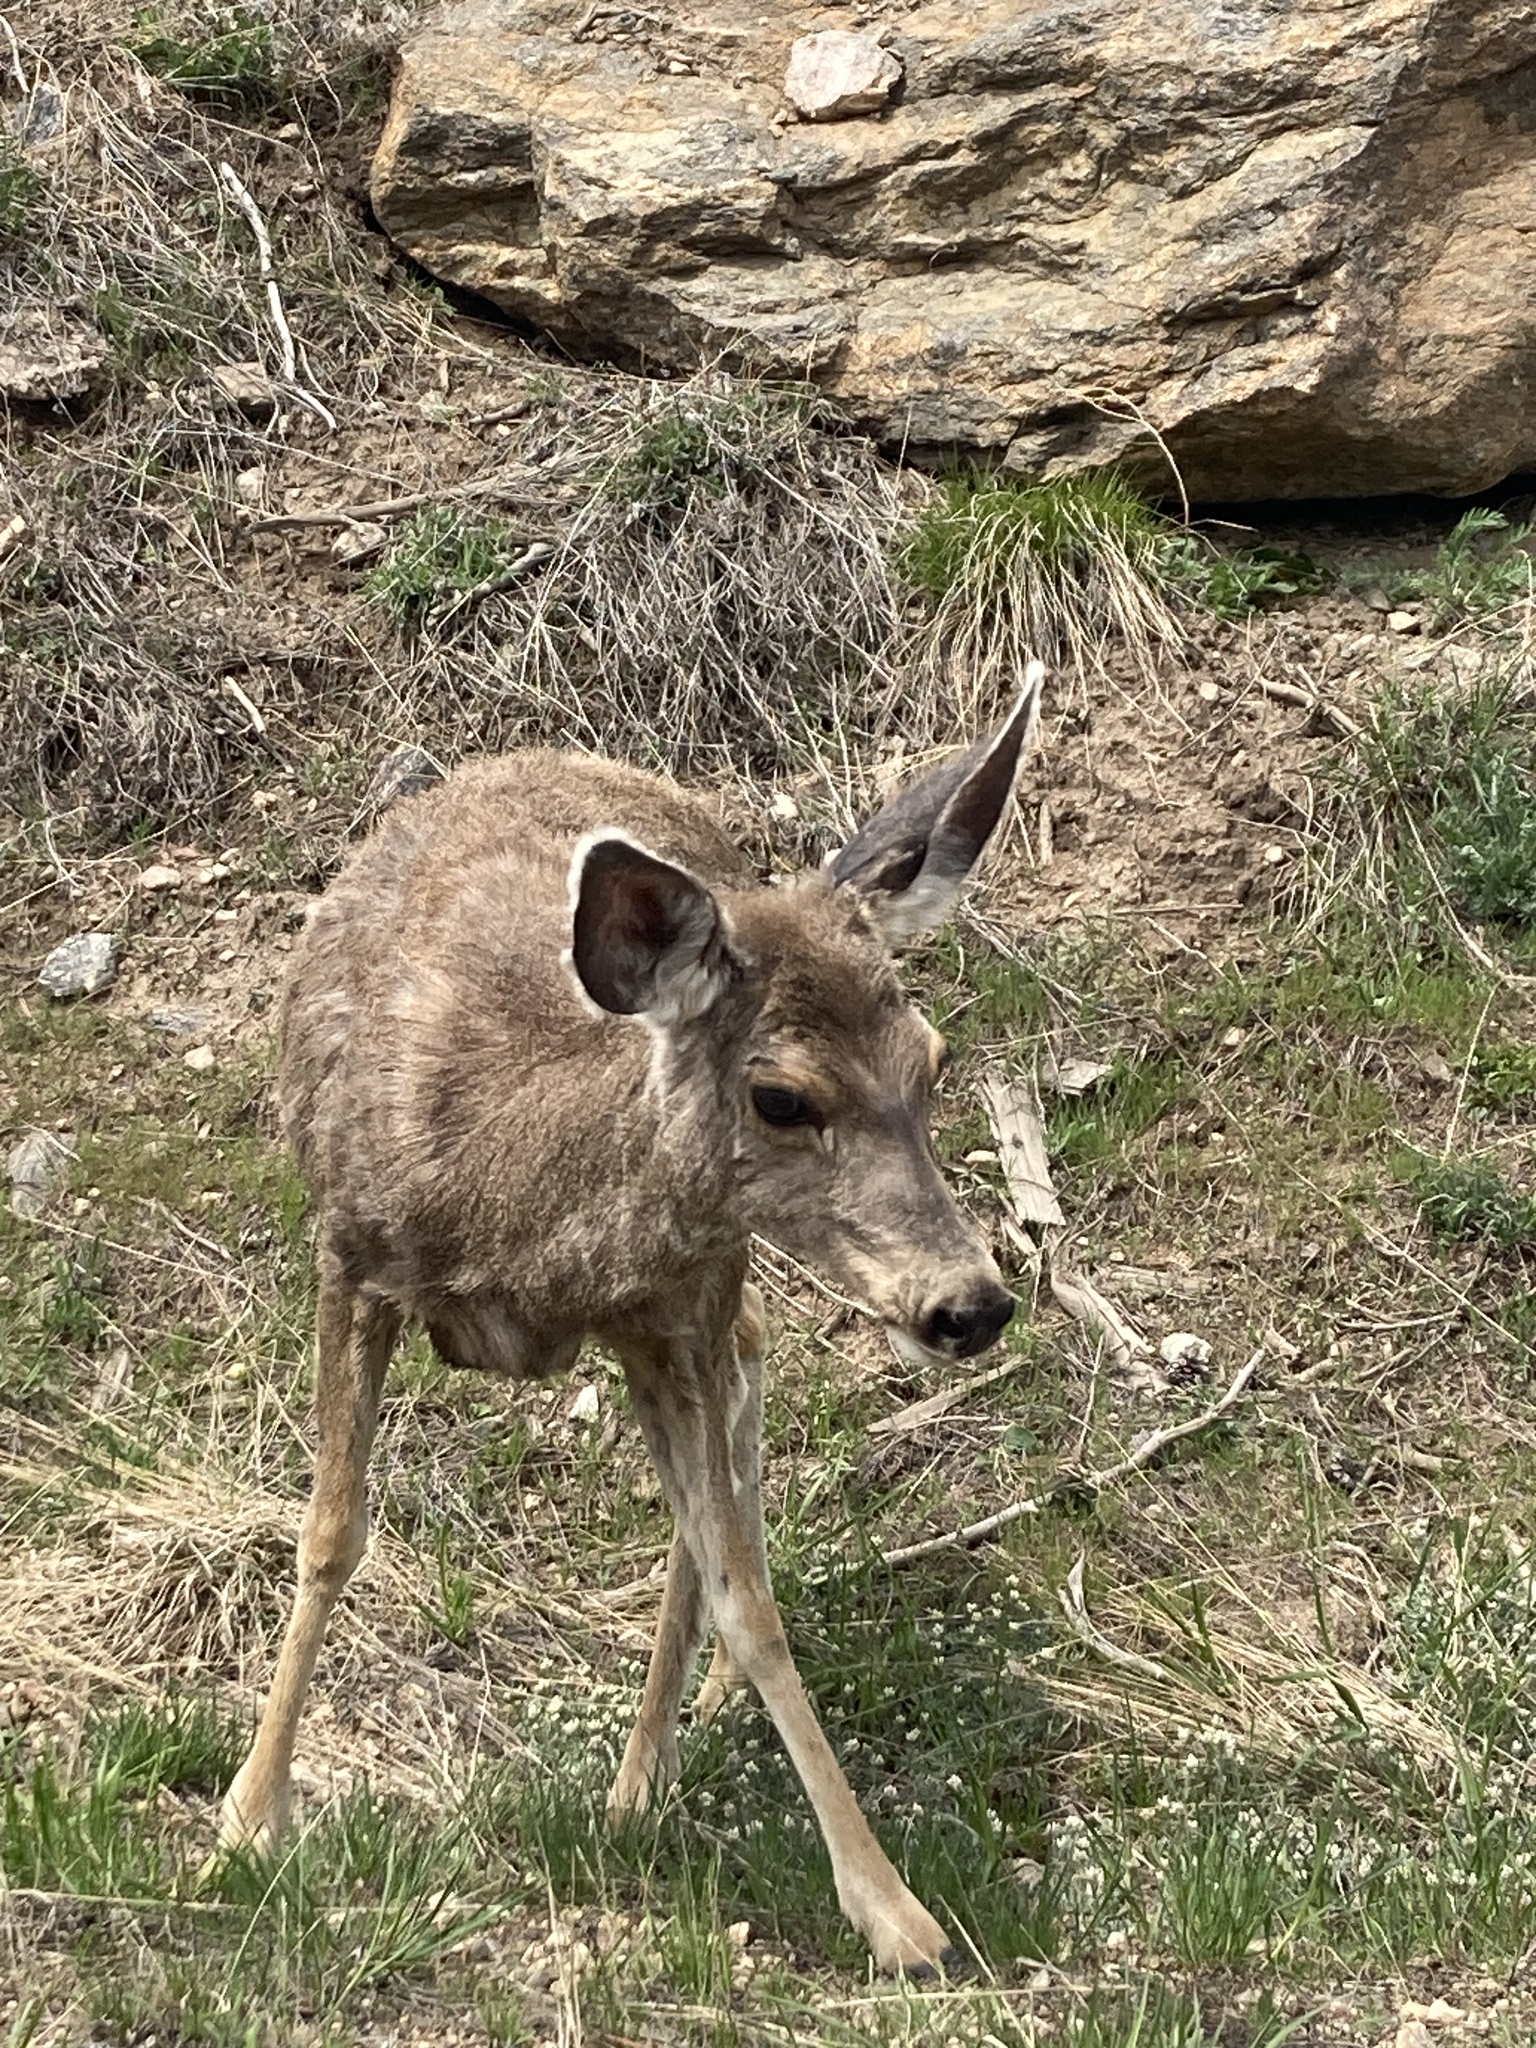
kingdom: Animalia
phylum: Chordata
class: Mammalia
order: Artiodactyla
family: Cervidae
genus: Odocoileus
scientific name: Odocoileus hemionus
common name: Mule deer
